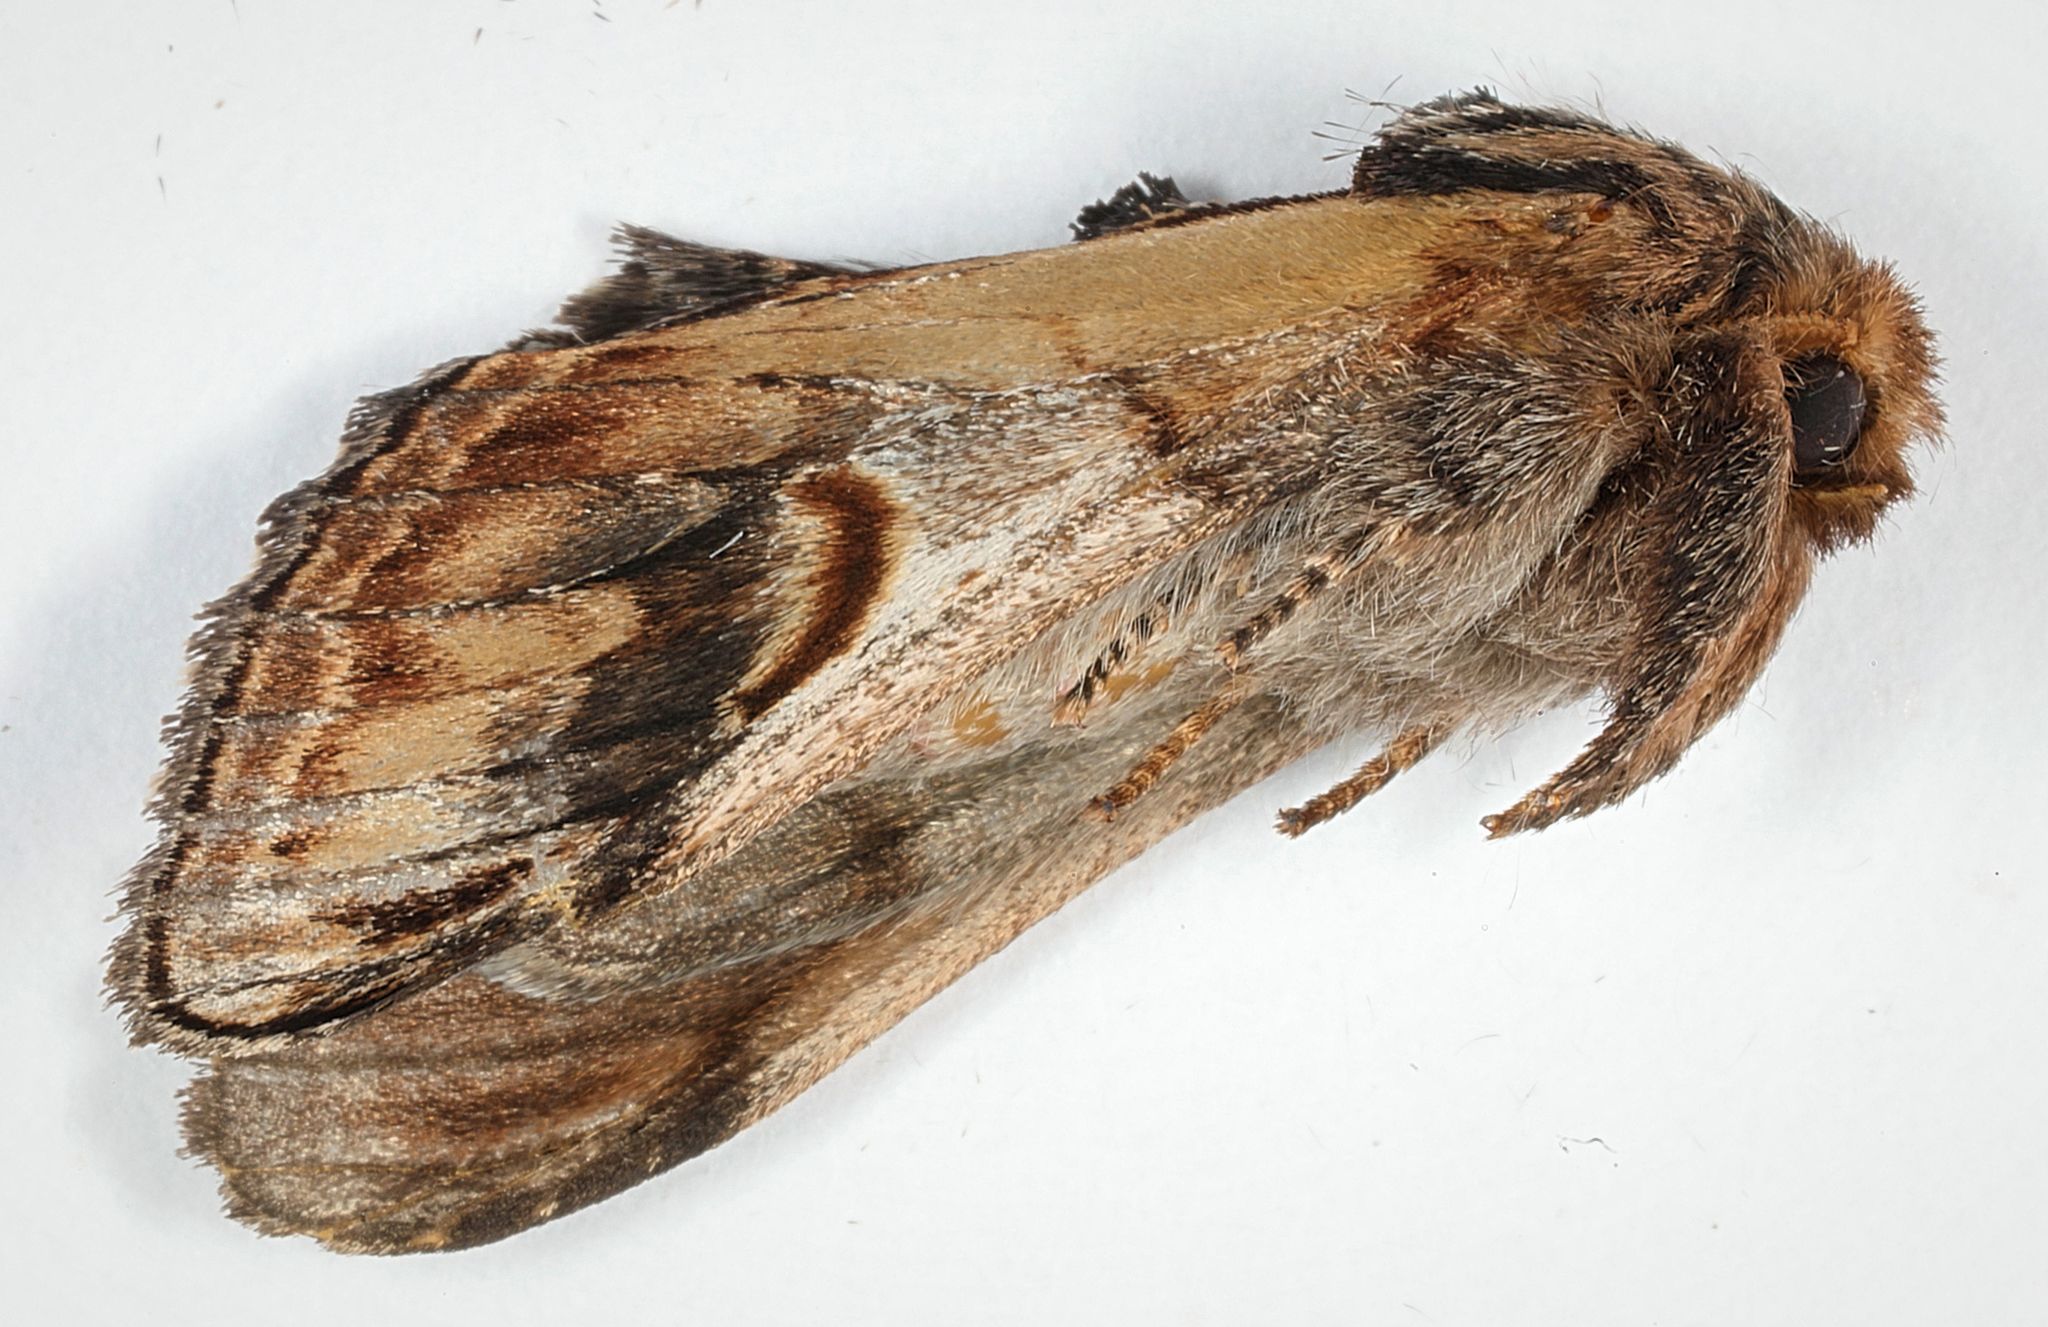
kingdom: Animalia
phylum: Arthropoda
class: Insecta
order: Lepidoptera
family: Notodontidae
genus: Notodonta
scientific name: Notodonta ziczac
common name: Pebble prominent
